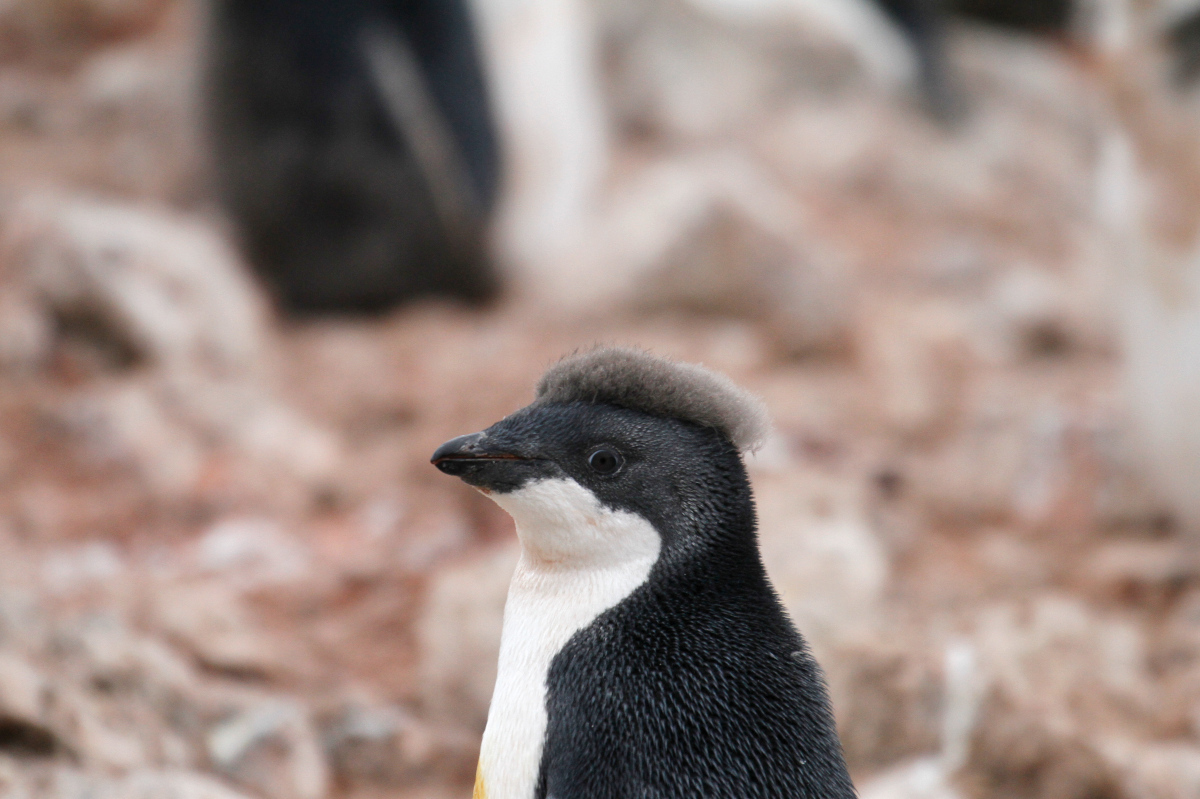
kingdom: Animalia
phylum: Chordata
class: Aves
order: Sphenisciformes
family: Spheniscidae
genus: Pygoscelis
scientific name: Pygoscelis adeliae
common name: Adelie penguin
